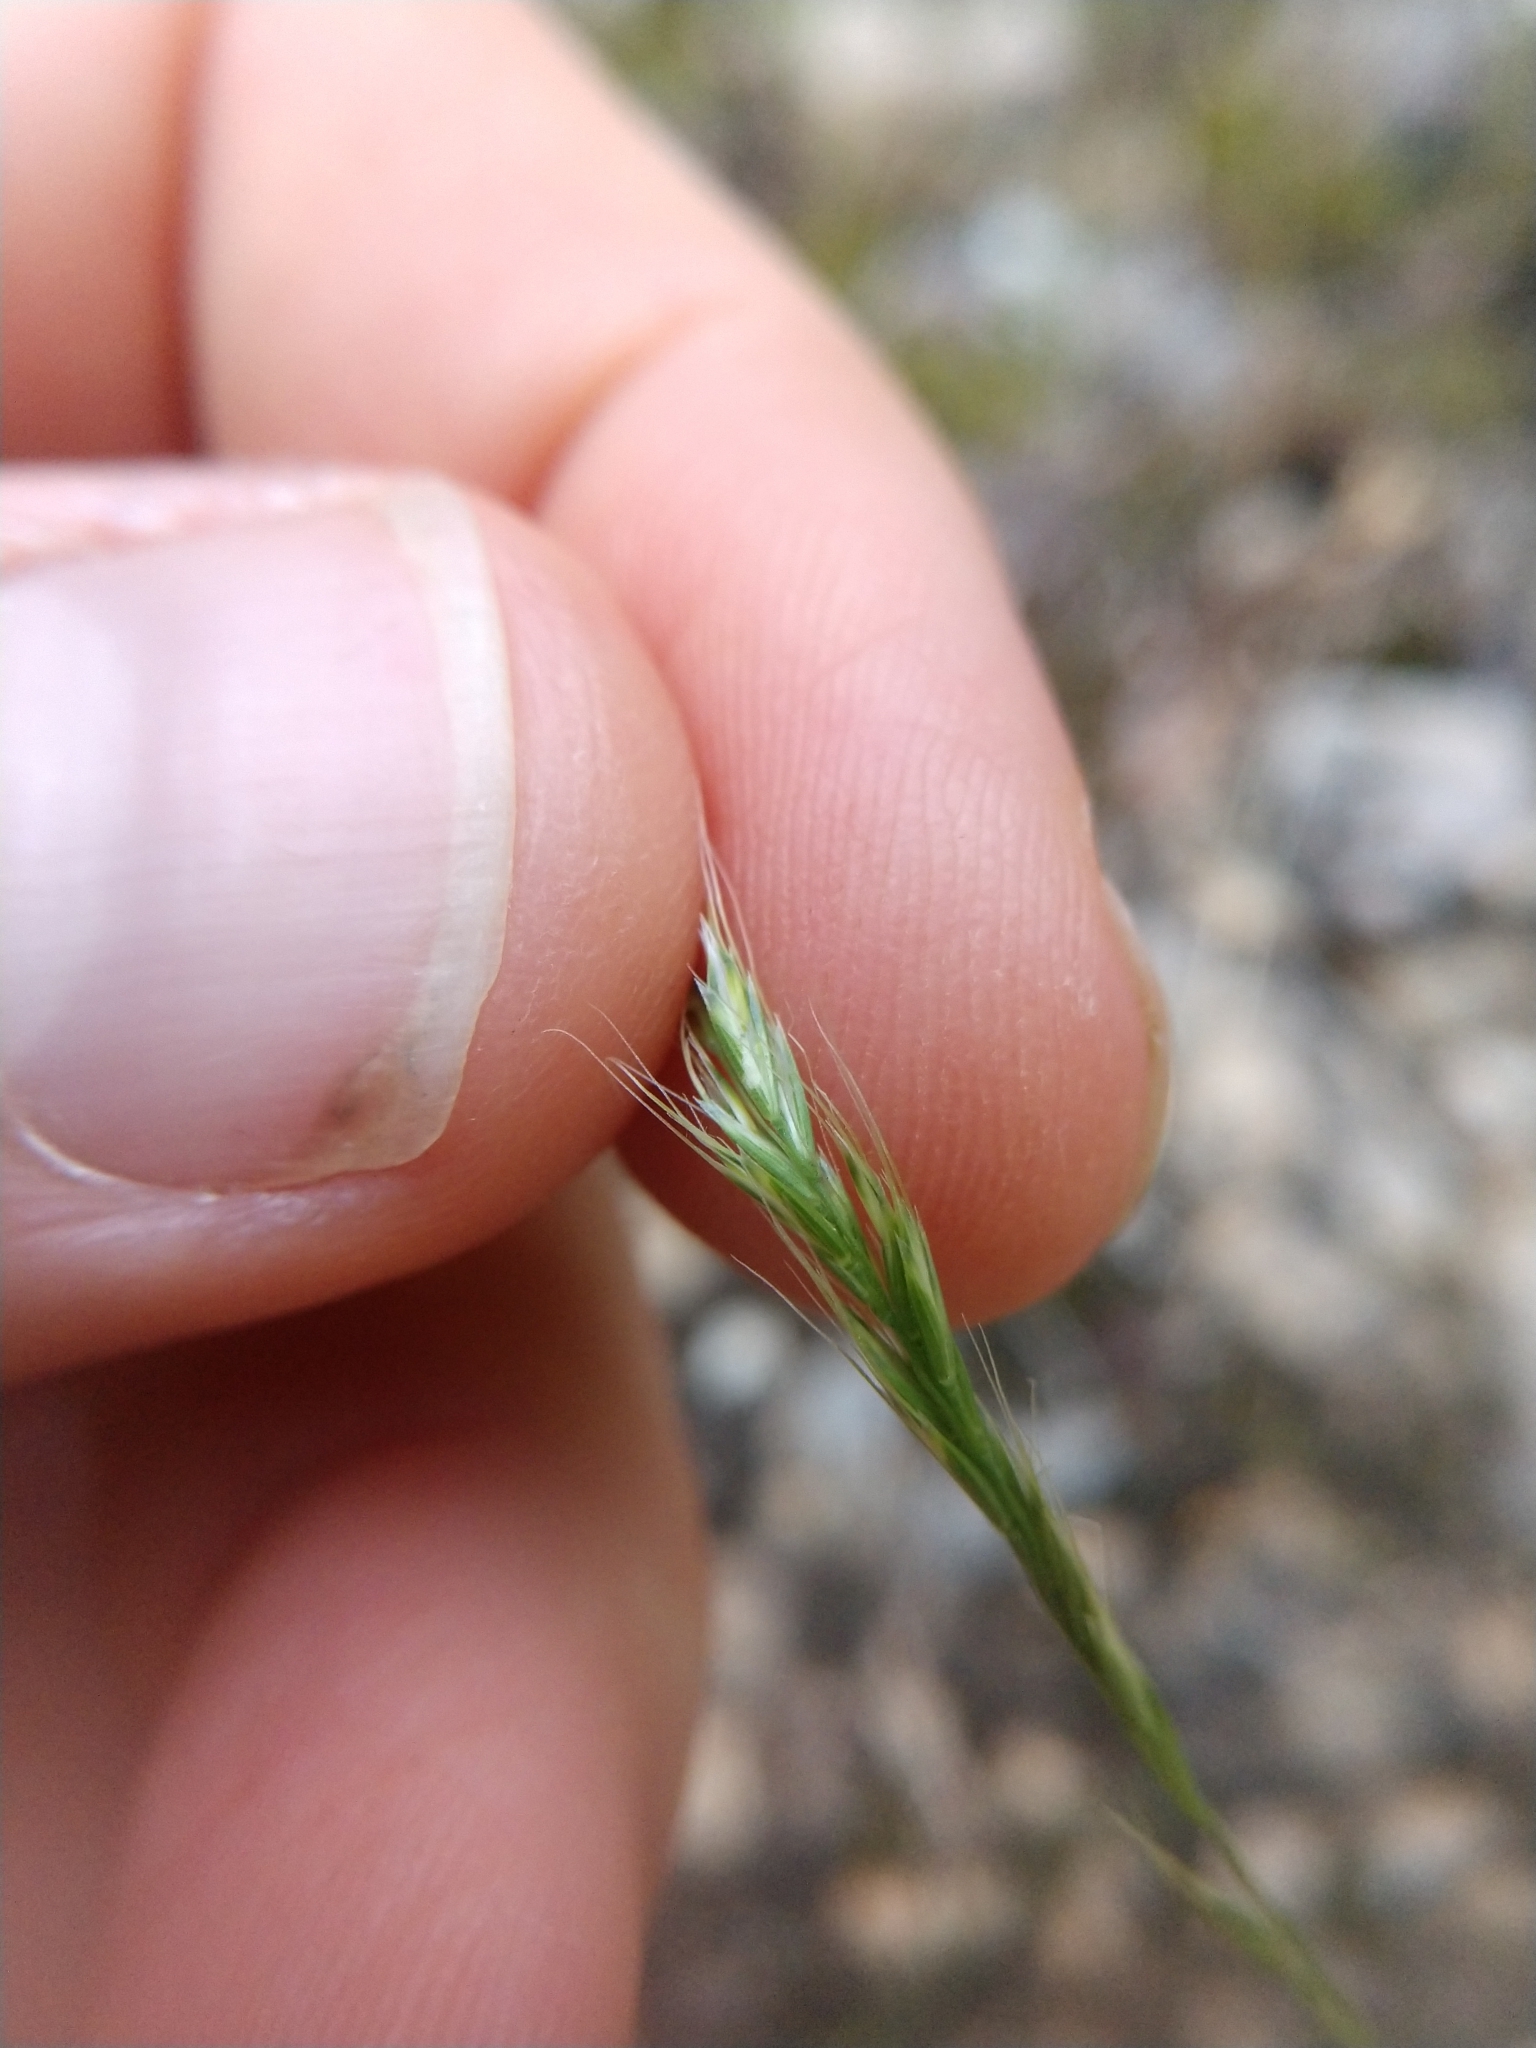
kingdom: Plantae
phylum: Tracheophyta
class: Liliopsida
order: Poales
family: Poaceae
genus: Trisetum
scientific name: Trisetum interruptum
